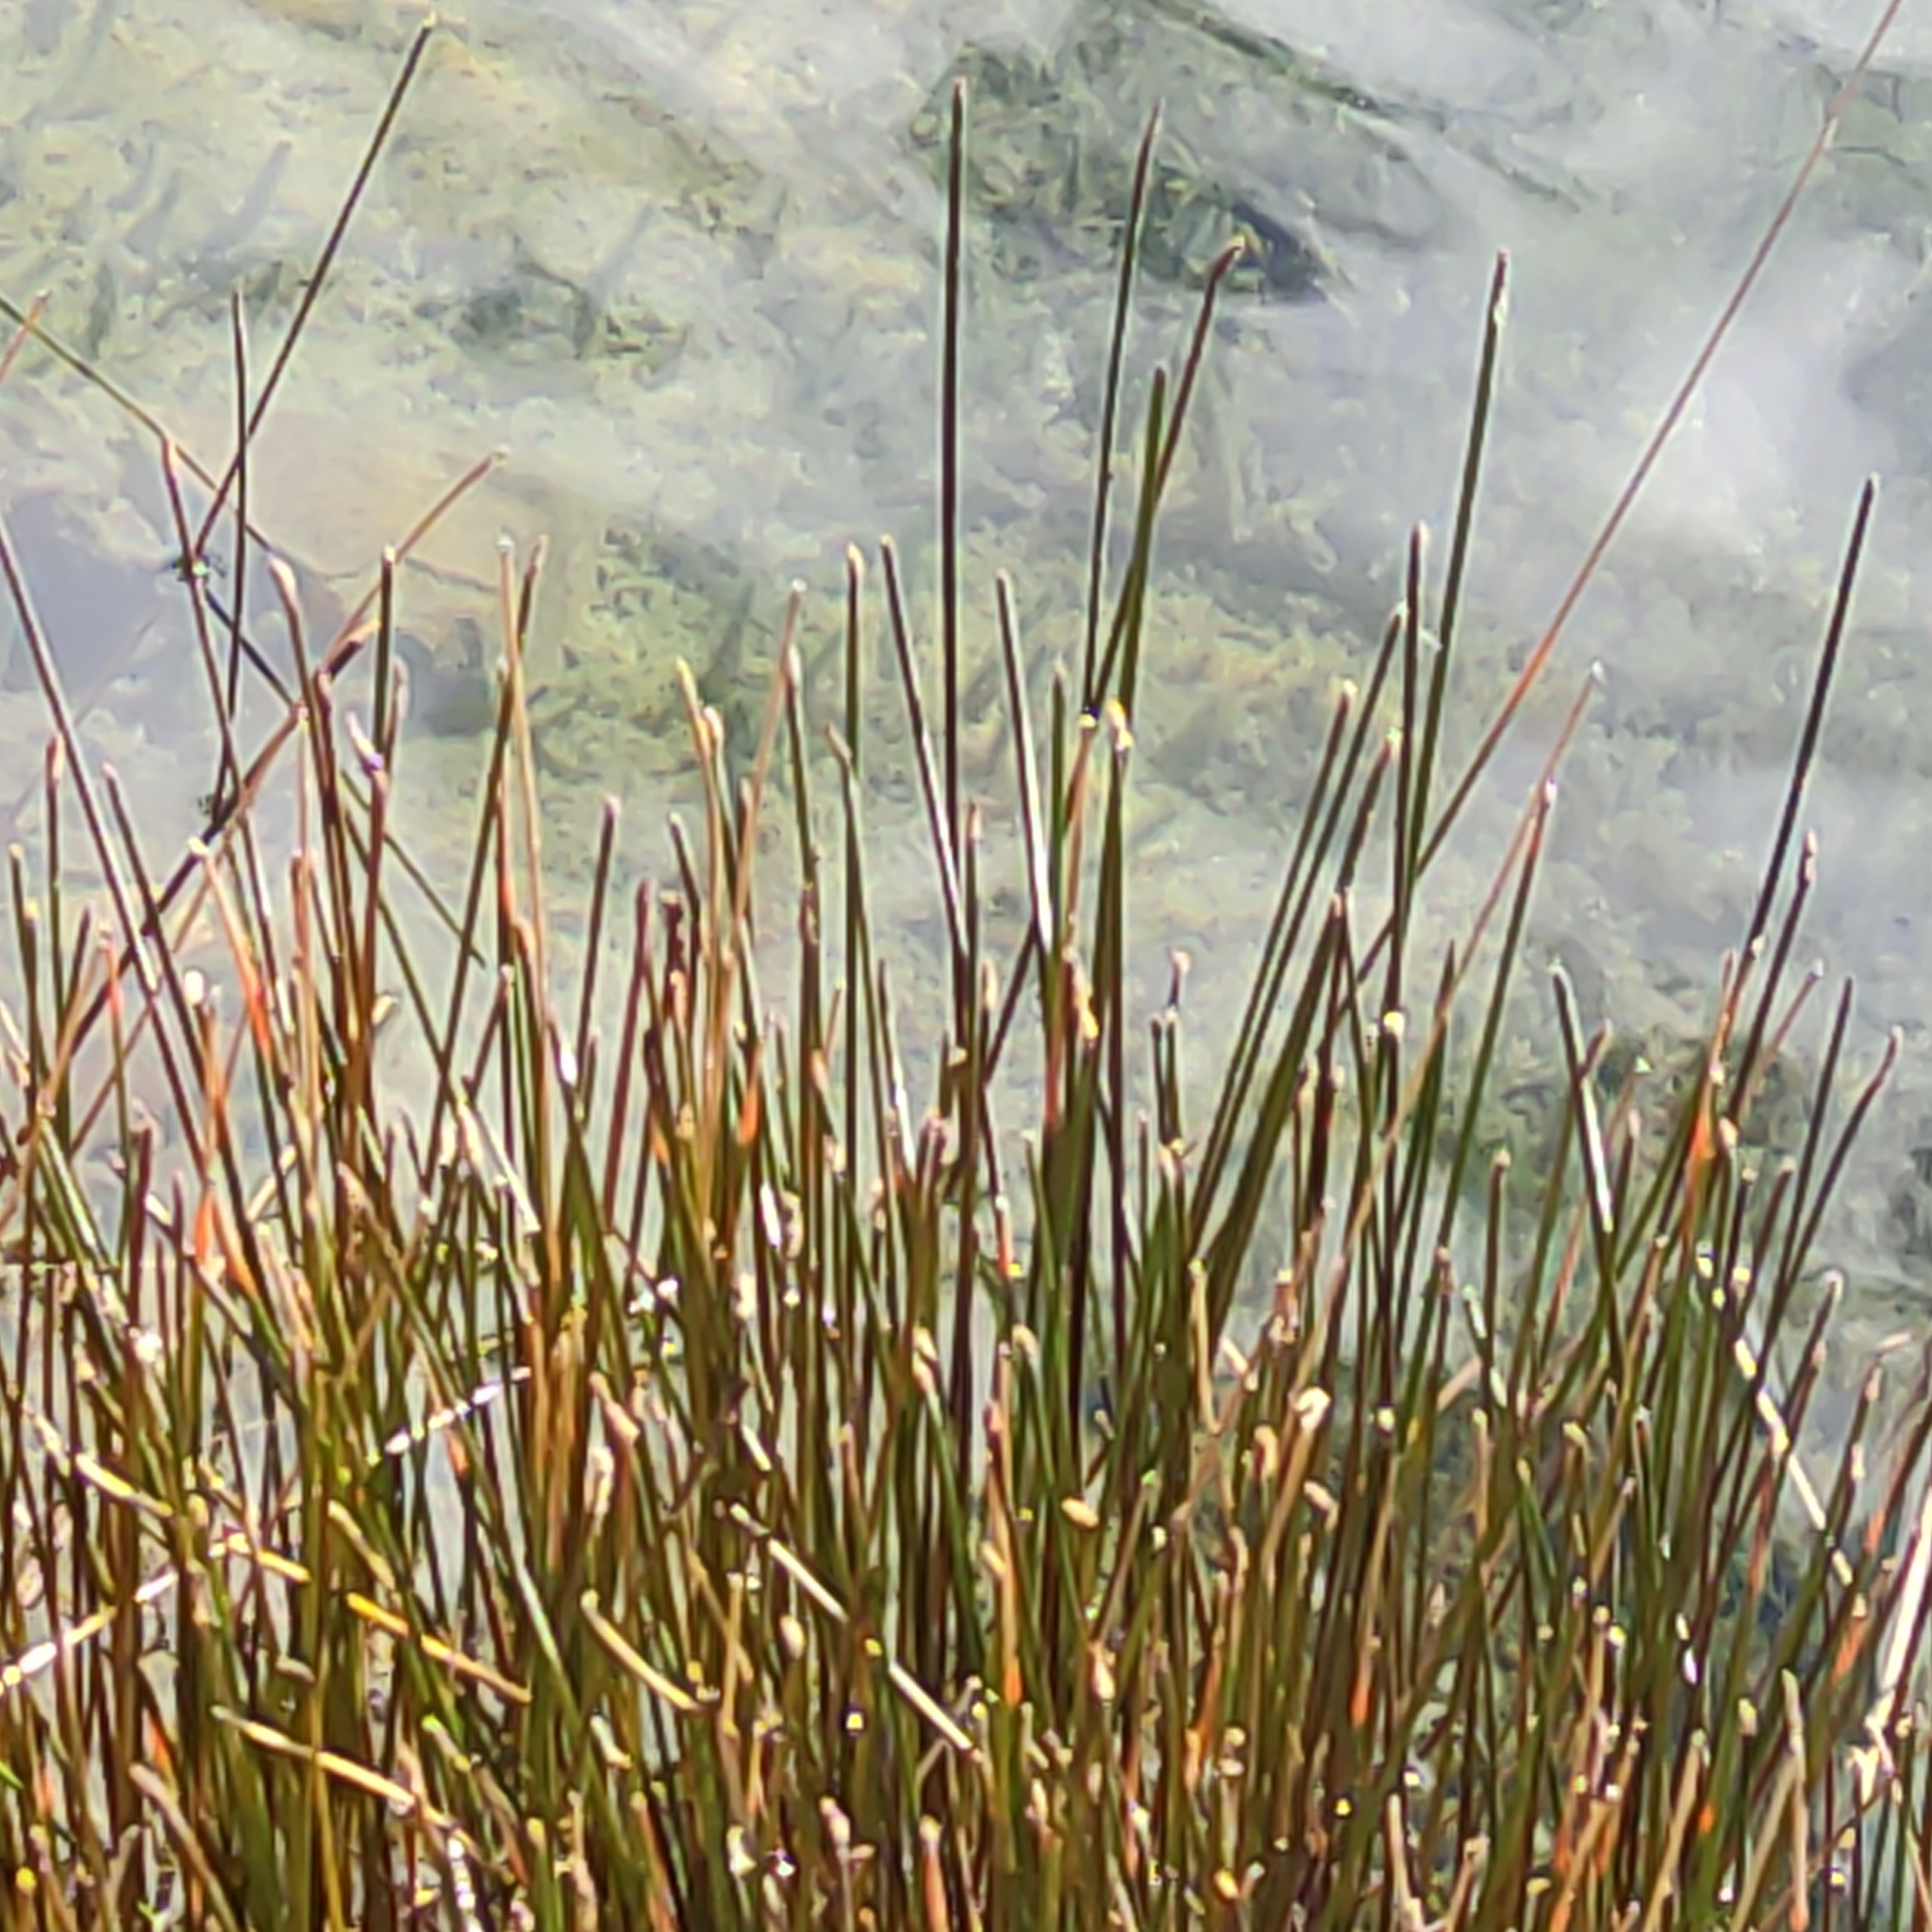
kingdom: Plantae
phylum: Tracheophyta
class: Liliopsida
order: Poales
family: Cyperaceae
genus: Eleocharis
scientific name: Eleocharis acuta
